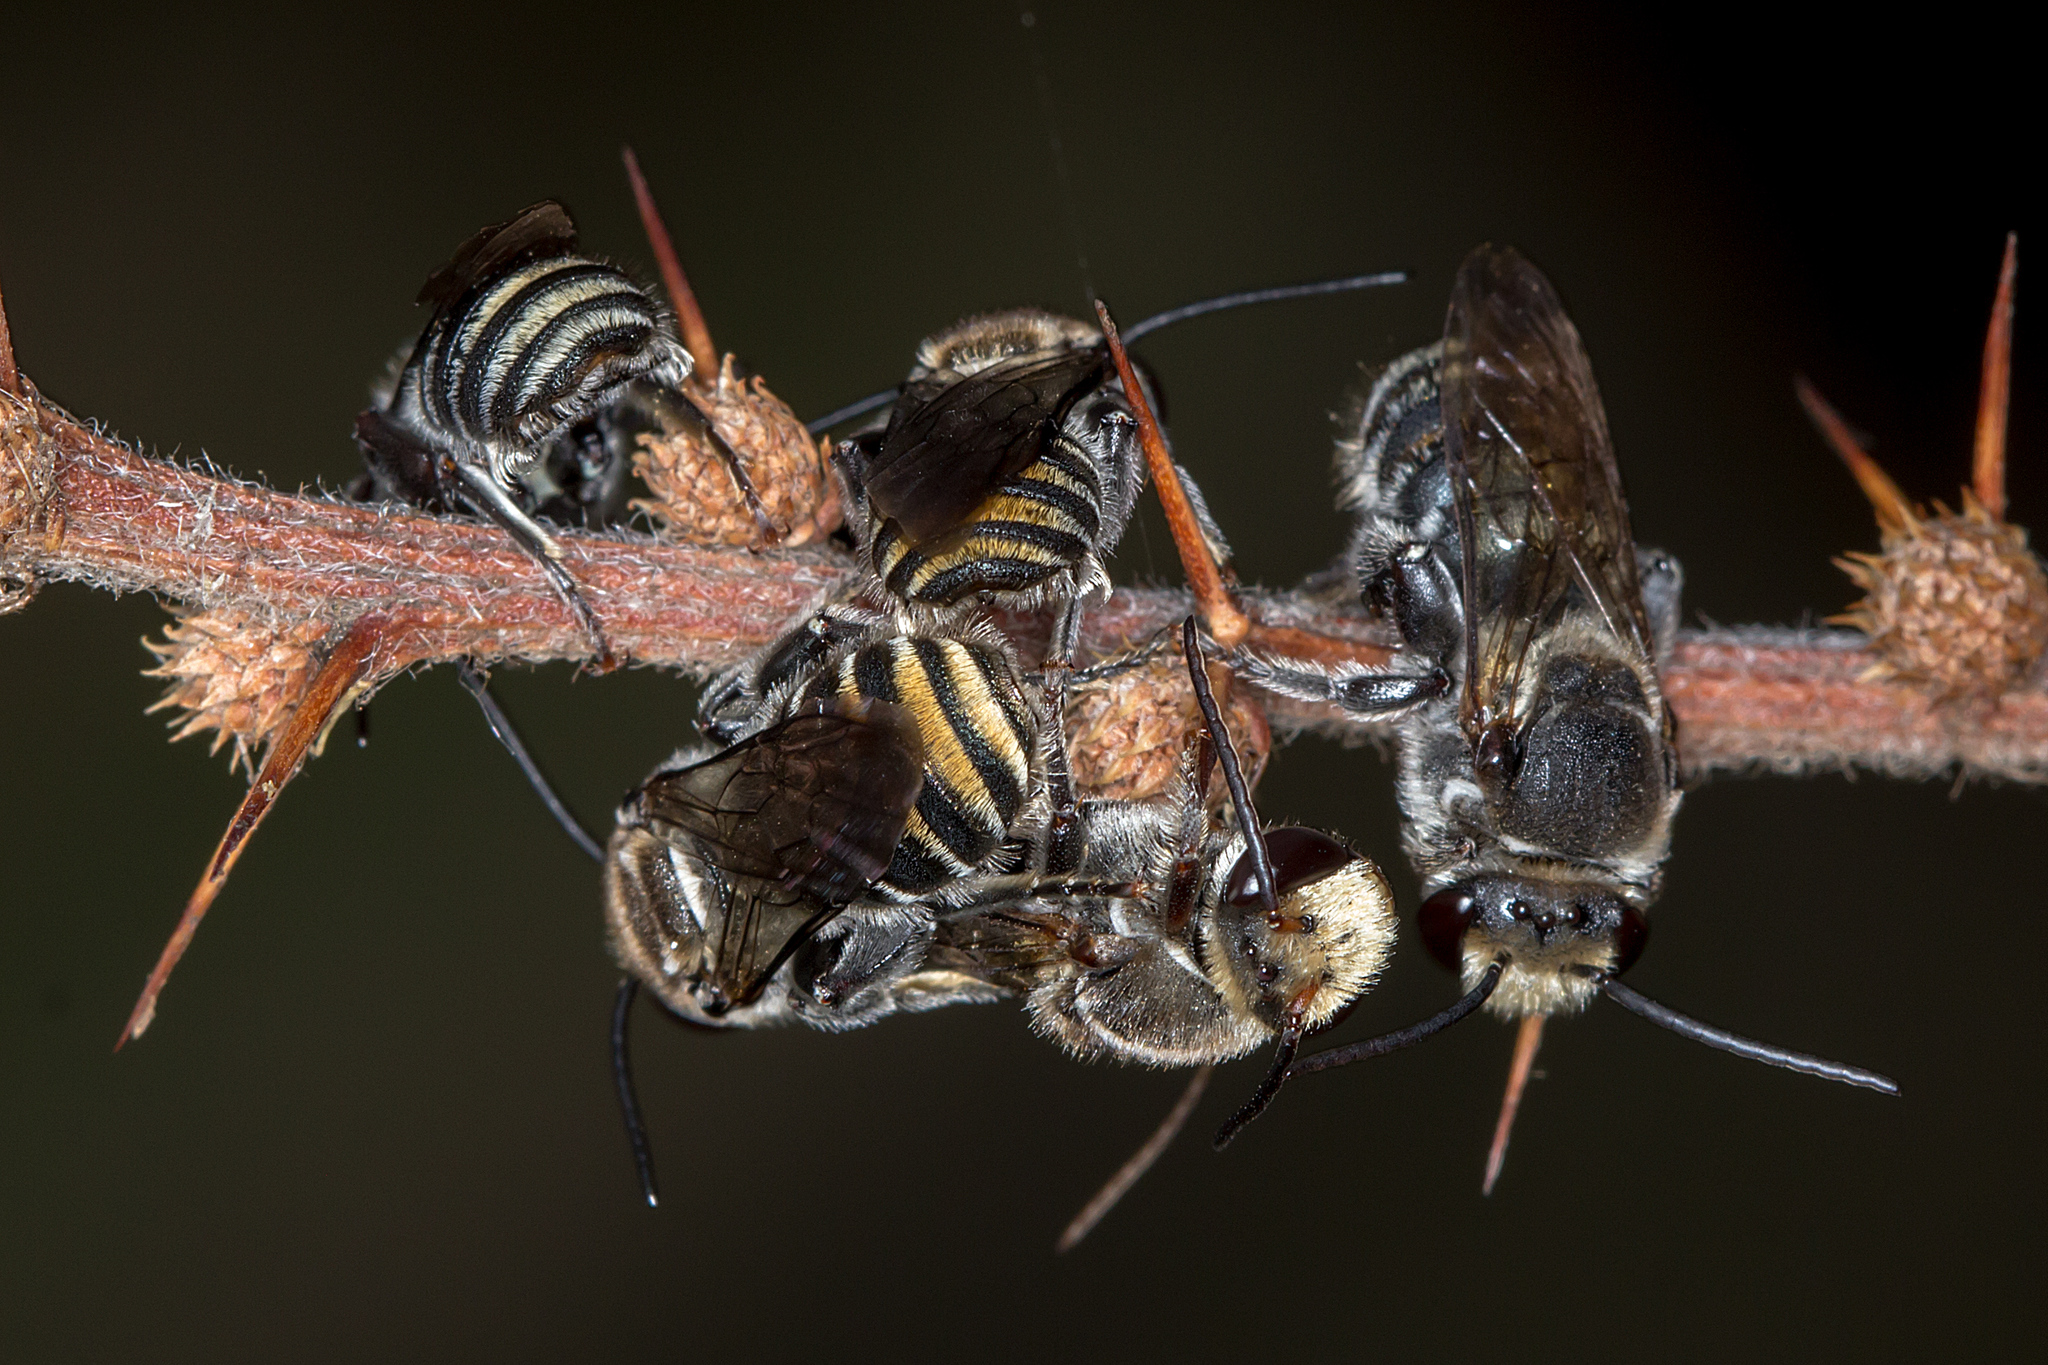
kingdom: Animalia
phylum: Arthropoda
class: Insecta
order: Hymenoptera
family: Halictidae
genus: Lipotriches
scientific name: Lipotriches australica
